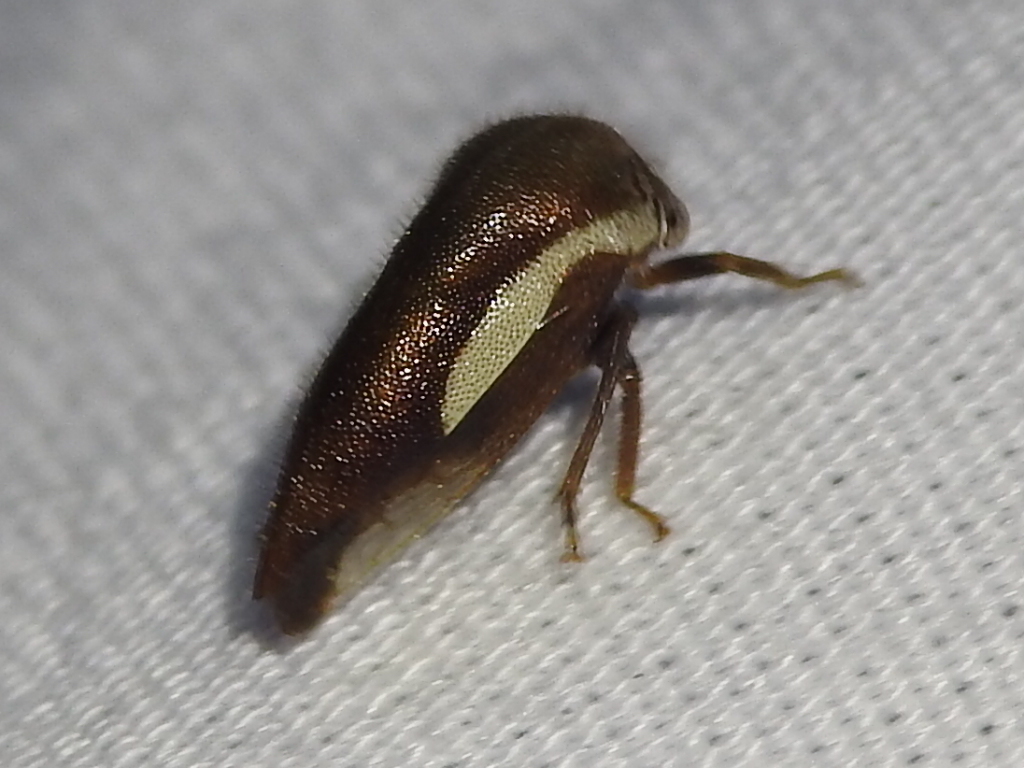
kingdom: Animalia
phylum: Arthropoda
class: Insecta
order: Hemiptera
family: Membracidae
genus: Ophiderma
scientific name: Ophiderma flavicephala
